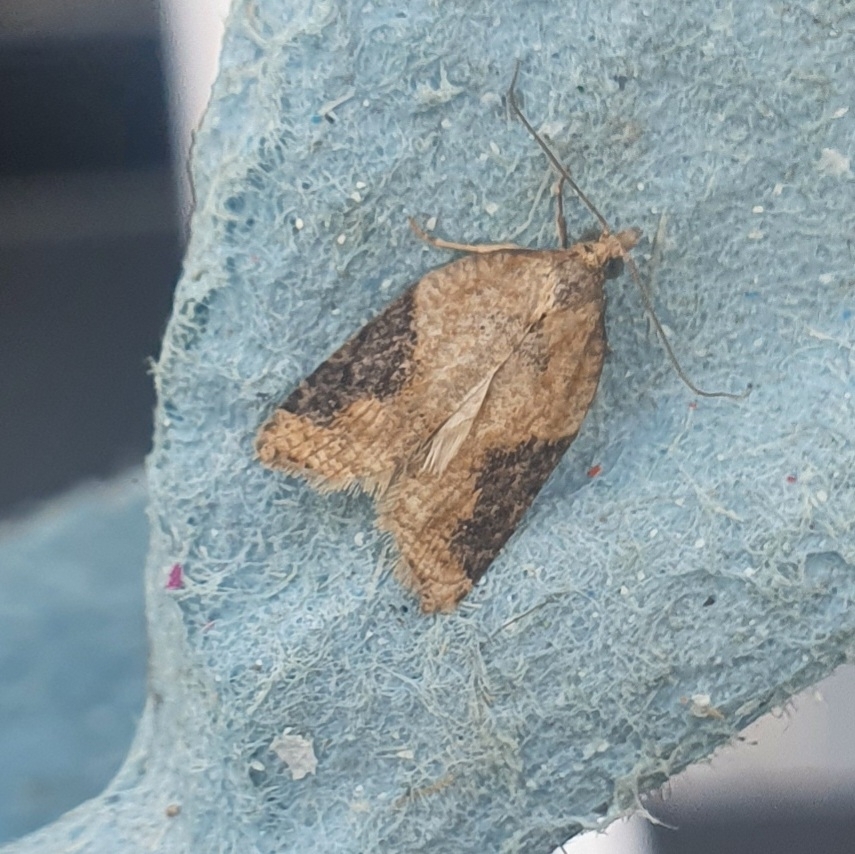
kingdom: Animalia
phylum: Arthropoda
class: Insecta
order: Lepidoptera
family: Tortricidae
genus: Acleris
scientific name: Acleris laterana
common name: Dark-triangle button
